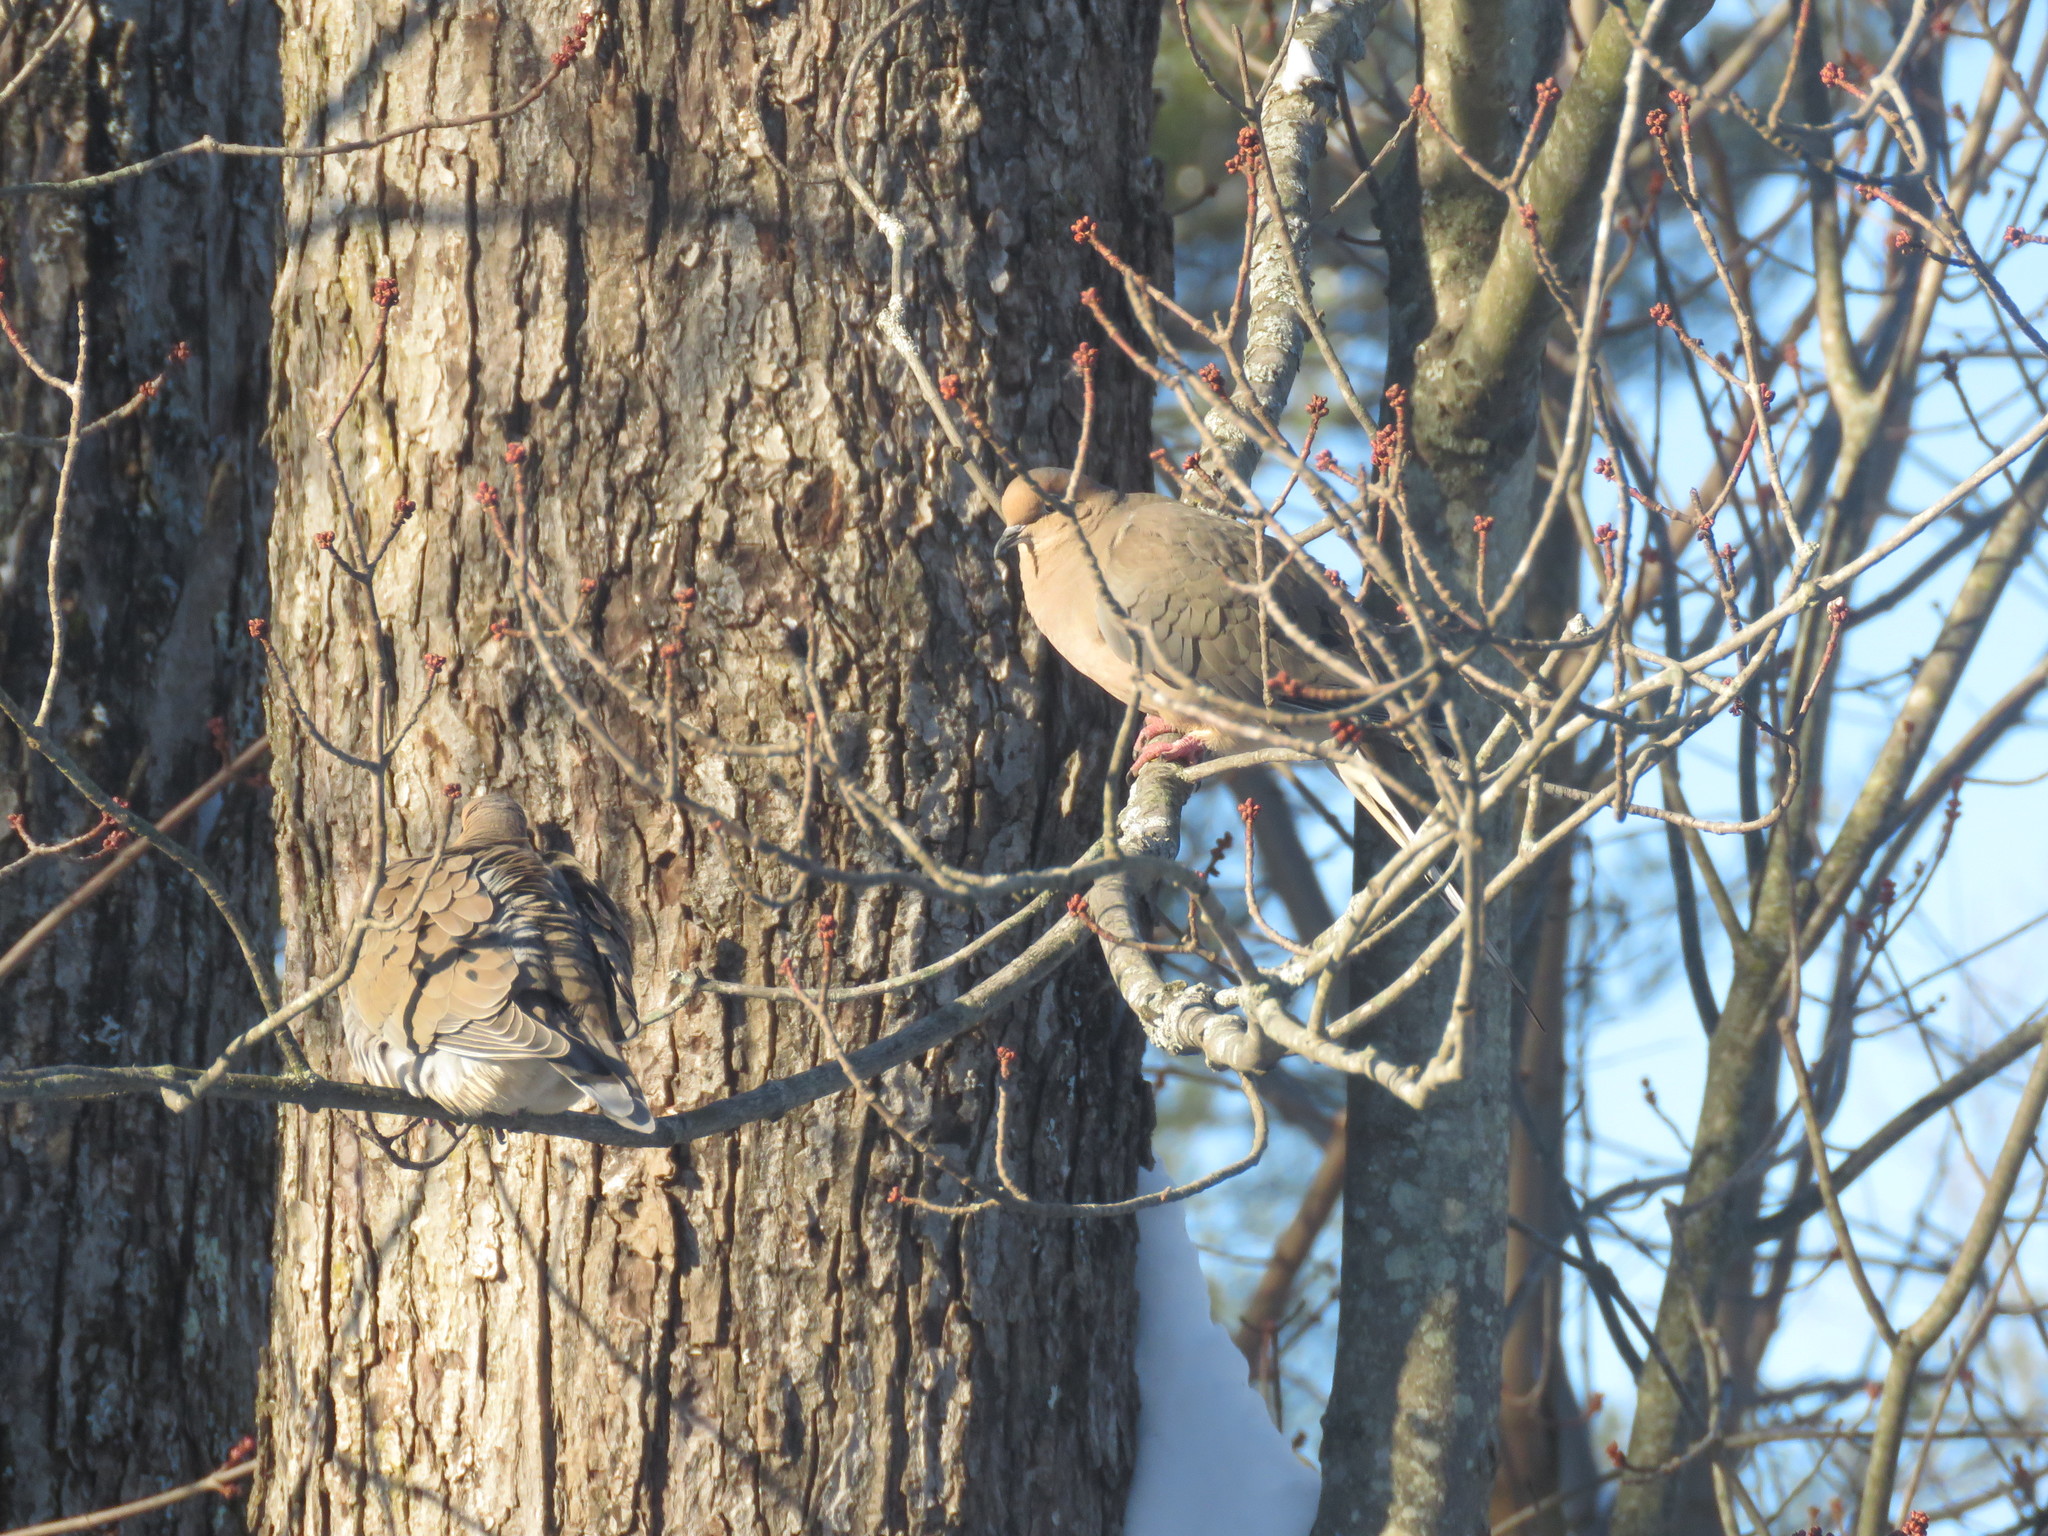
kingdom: Animalia
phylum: Chordata
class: Aves
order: Columbiformes
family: Columbidae
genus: Zenaida
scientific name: Zenaida macroura
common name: Mourning dove
